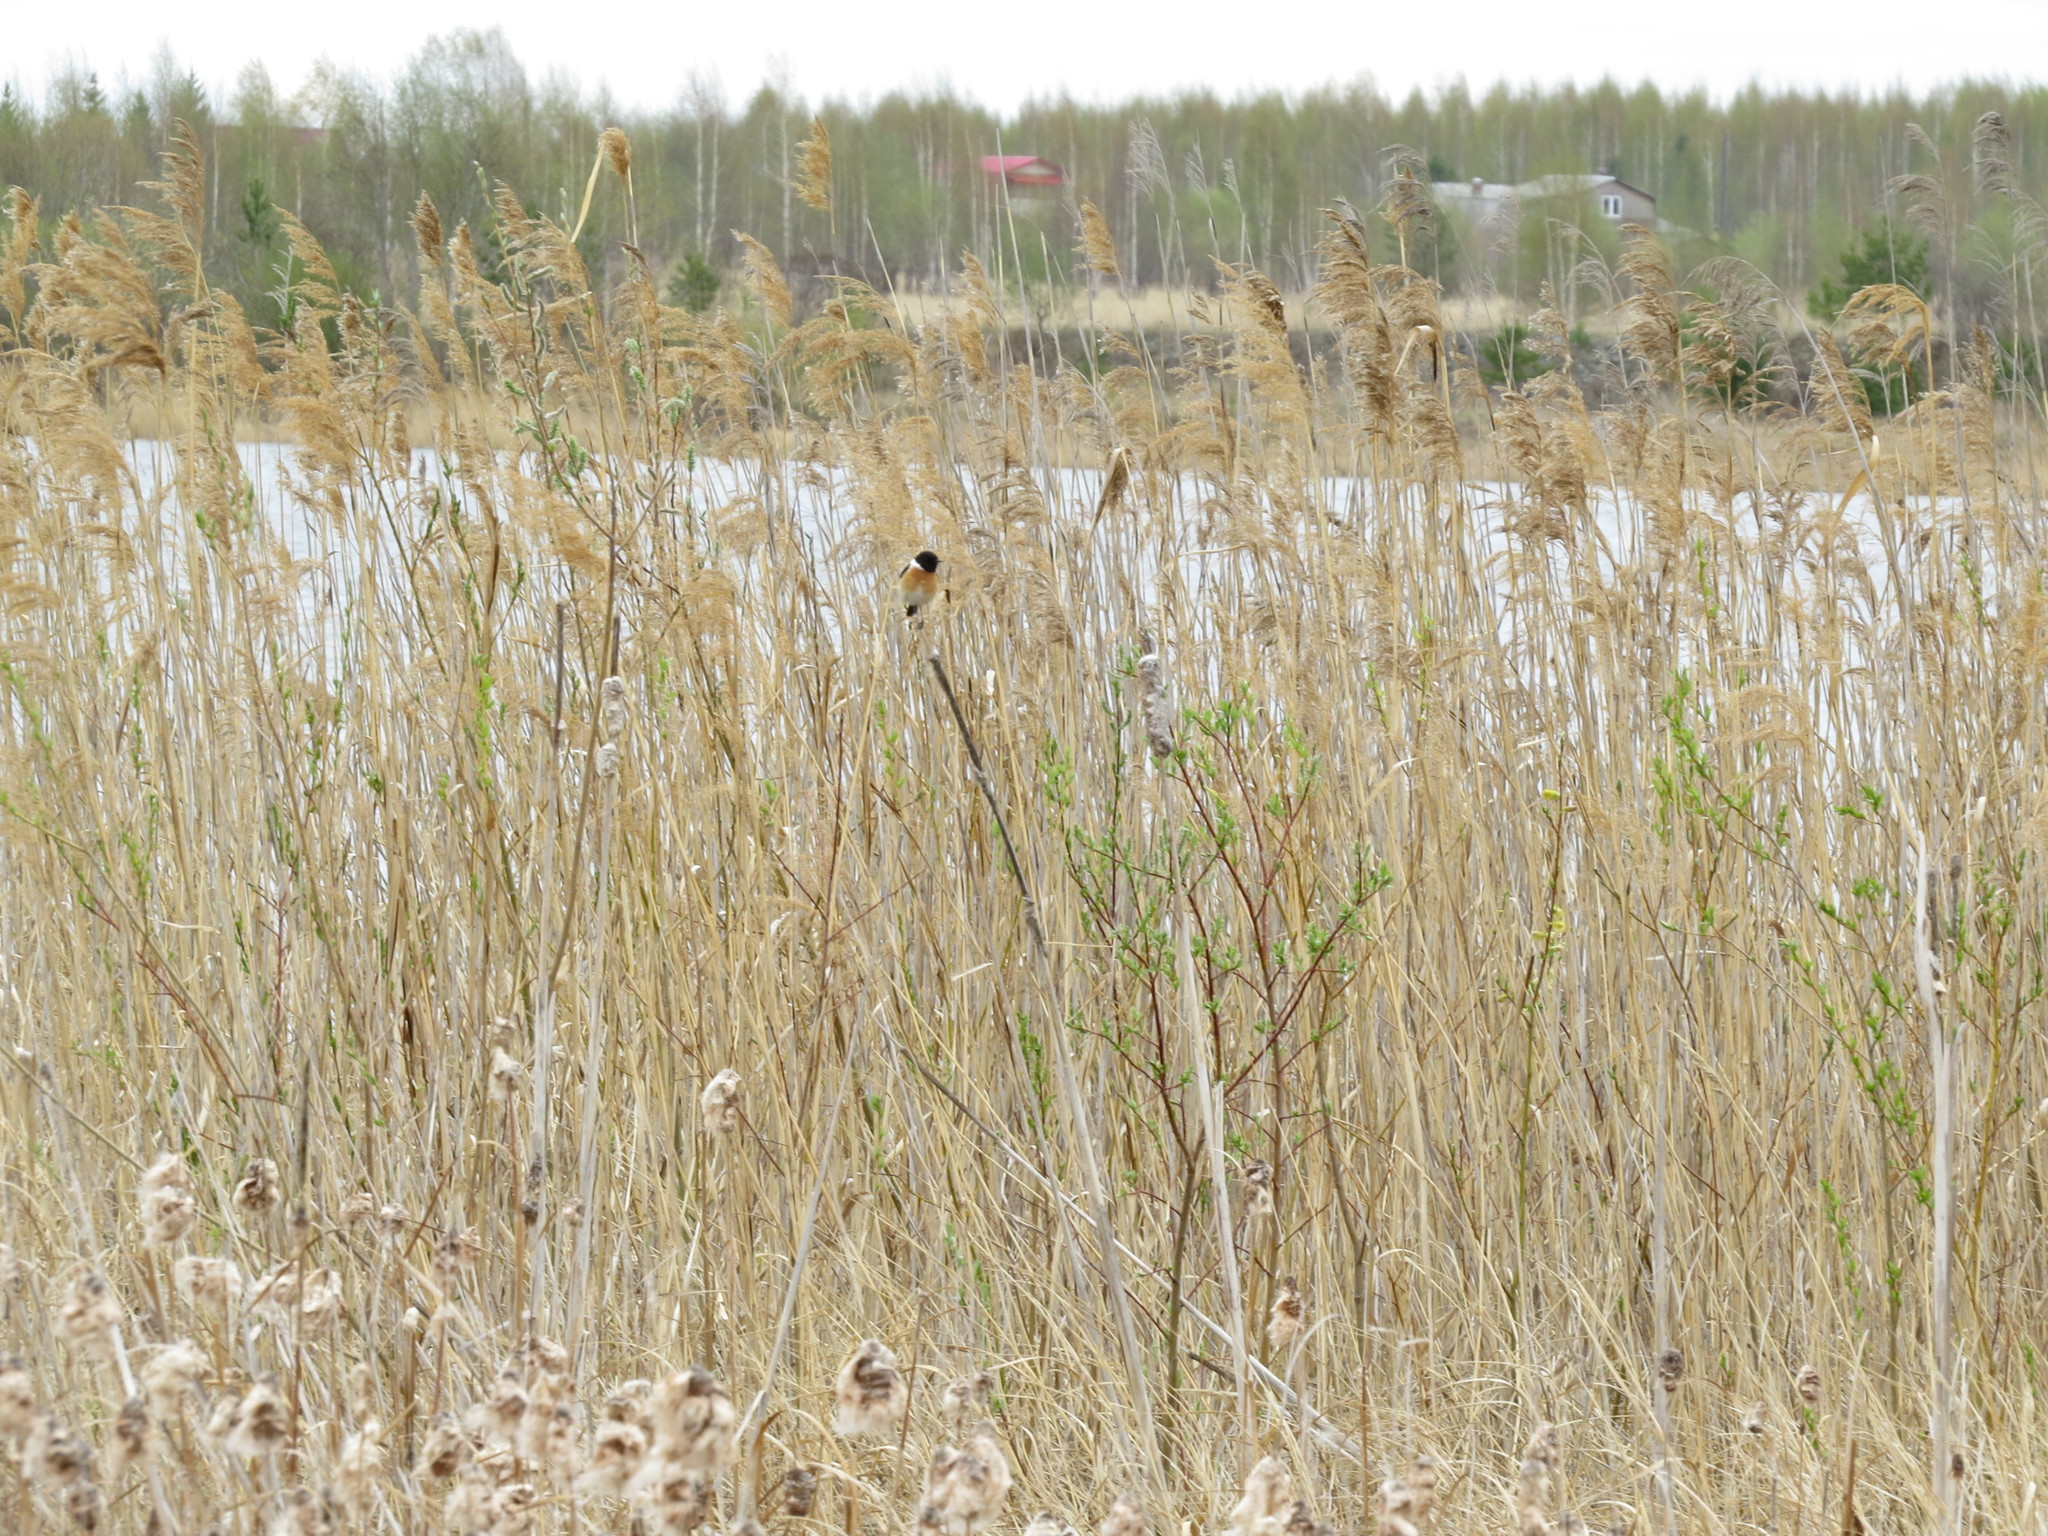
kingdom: Animalia
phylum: Chordata
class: Aves
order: Passeriformes
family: Muscicapidae
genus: Saxicola
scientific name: Saxicola maurus
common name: Siberian stonechat
